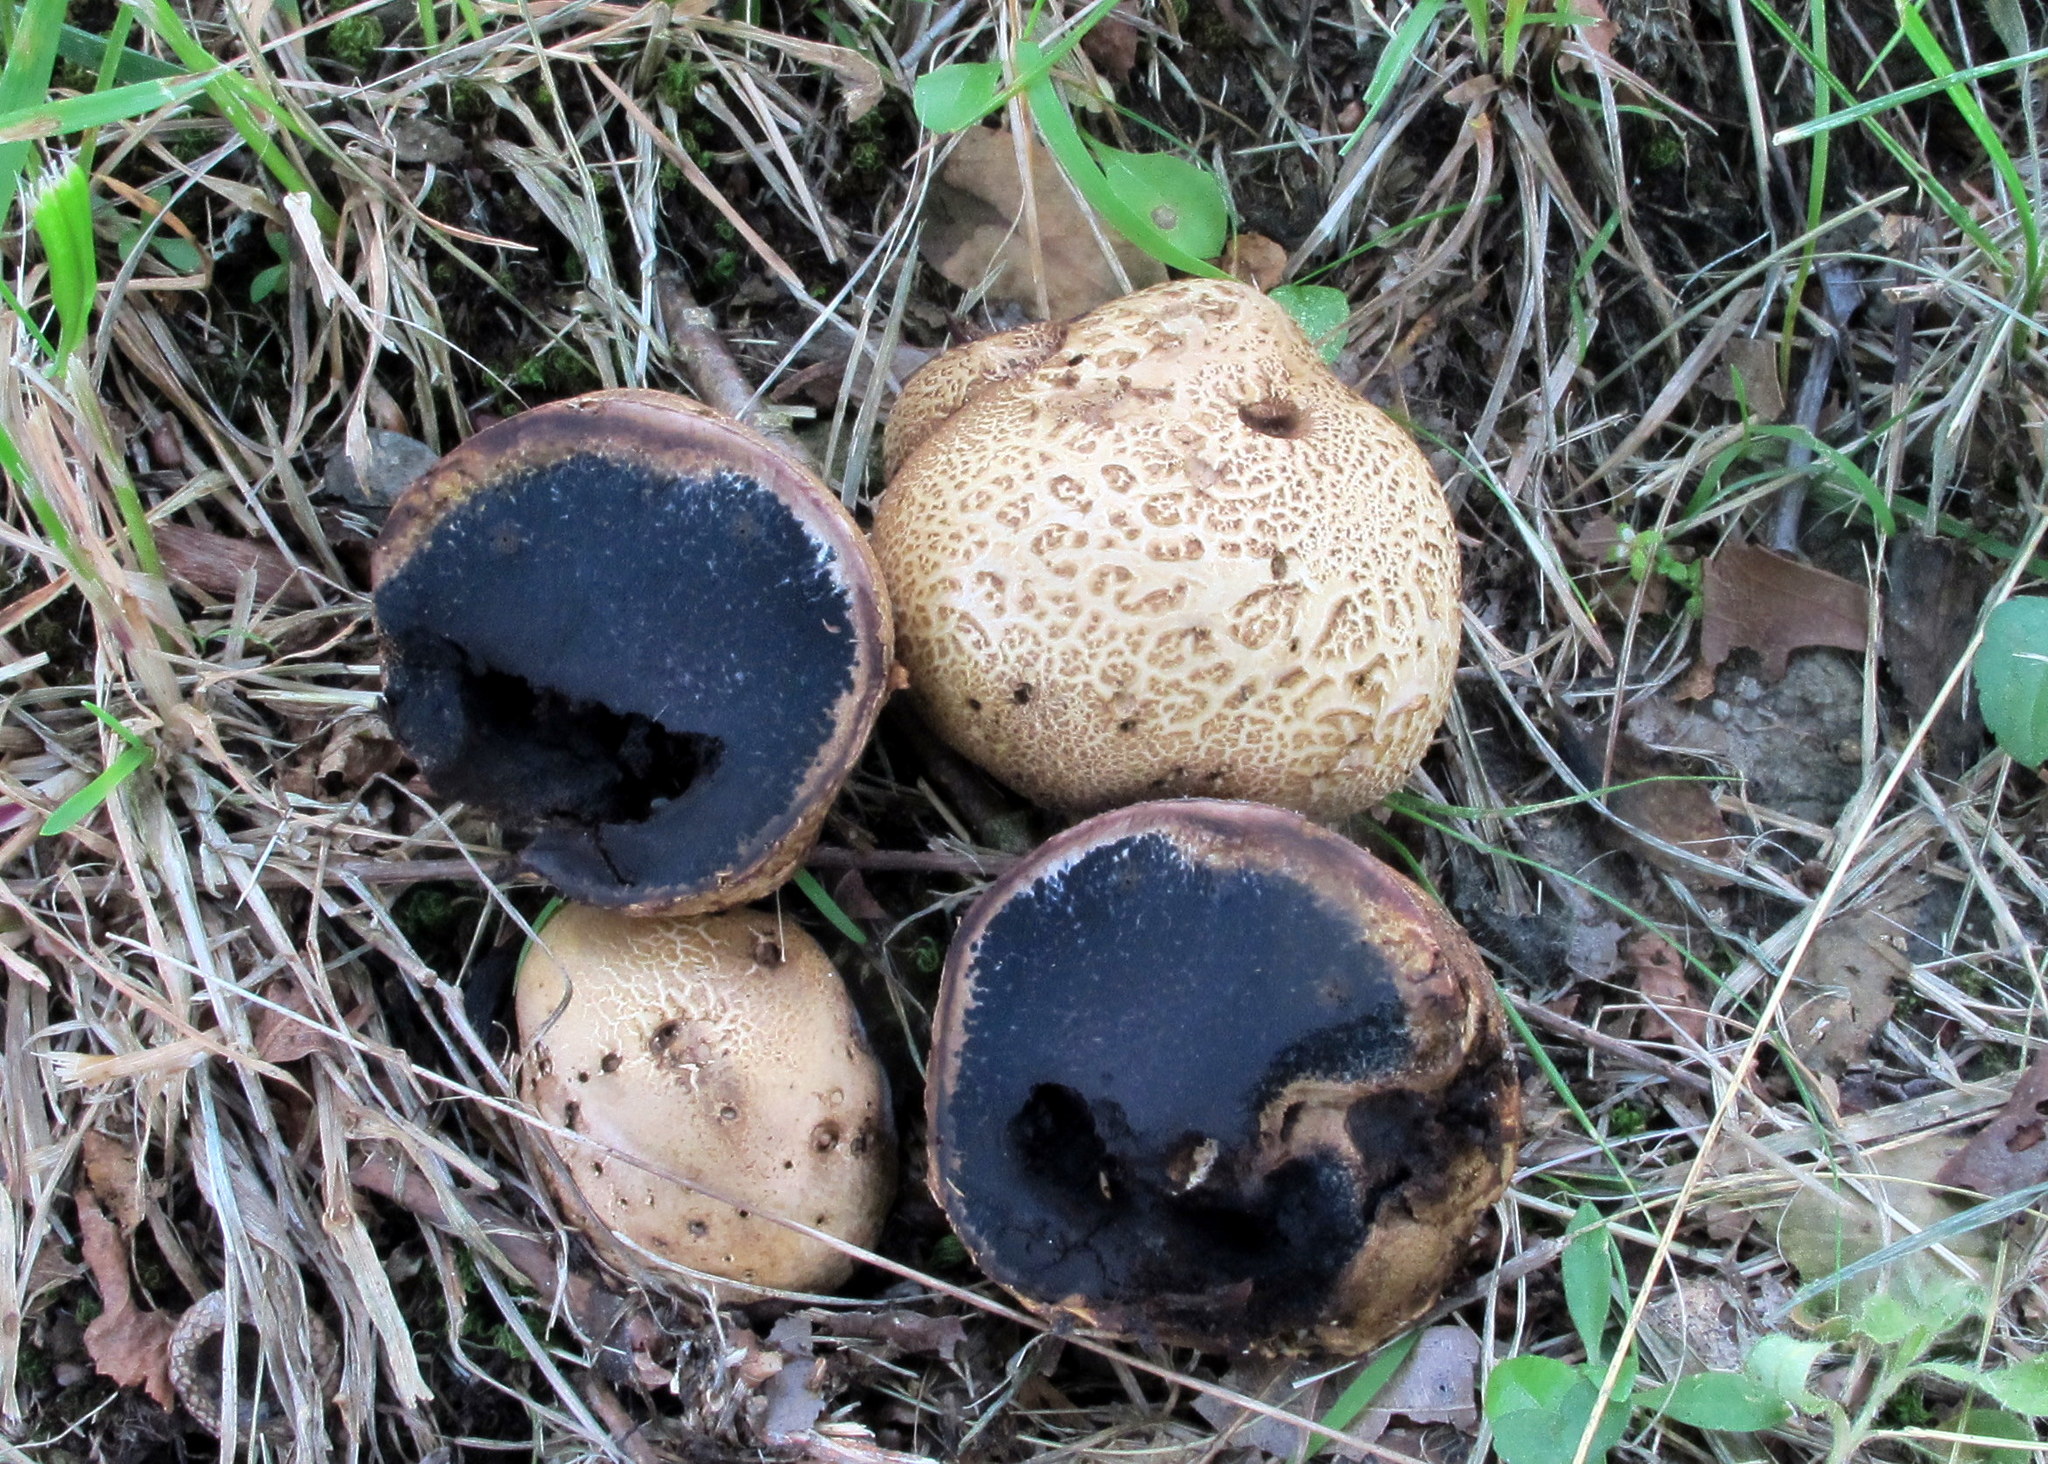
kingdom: Fungi
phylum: Basidiomycota
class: Agaricomycetes
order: Boletales
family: Sclerodermataceae
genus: Scleroderma
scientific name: Scleroderma citrinum
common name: Common earthball
